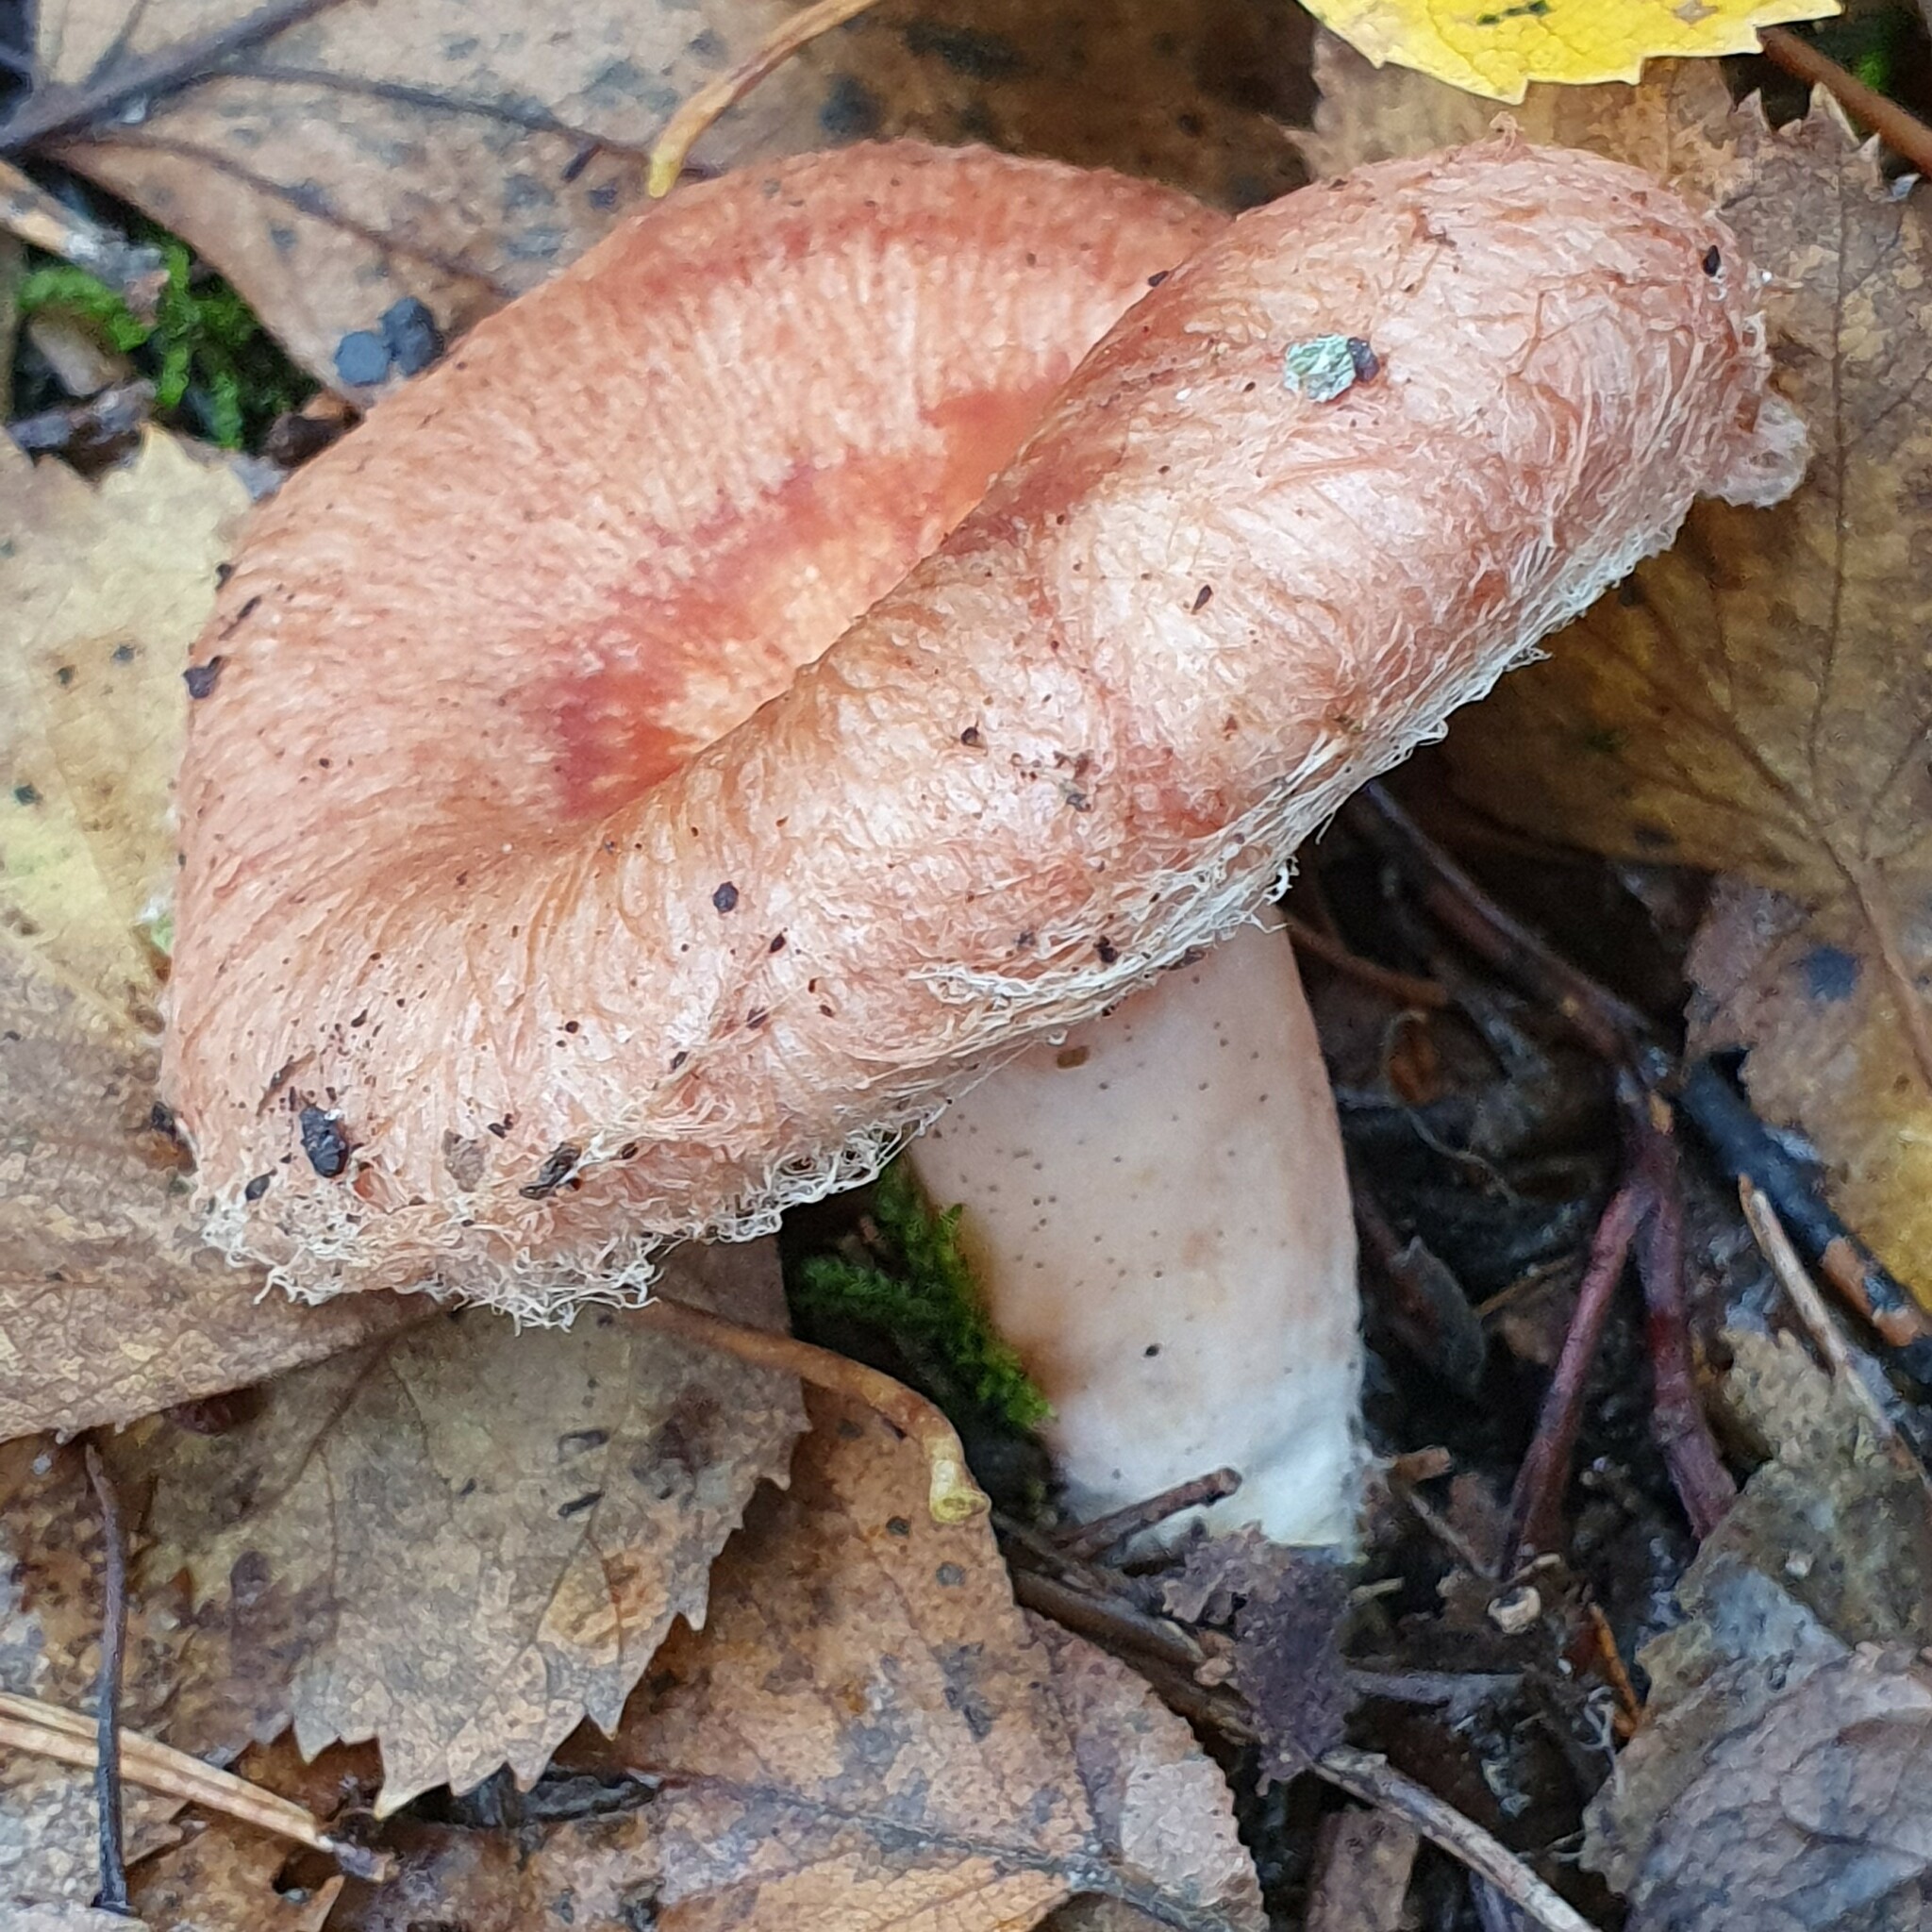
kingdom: Fungi
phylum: Basidiomycota
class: Agaricomycetes
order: Russulales
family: Russulaceae
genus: Lactarius
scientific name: Lactarius torminosus
